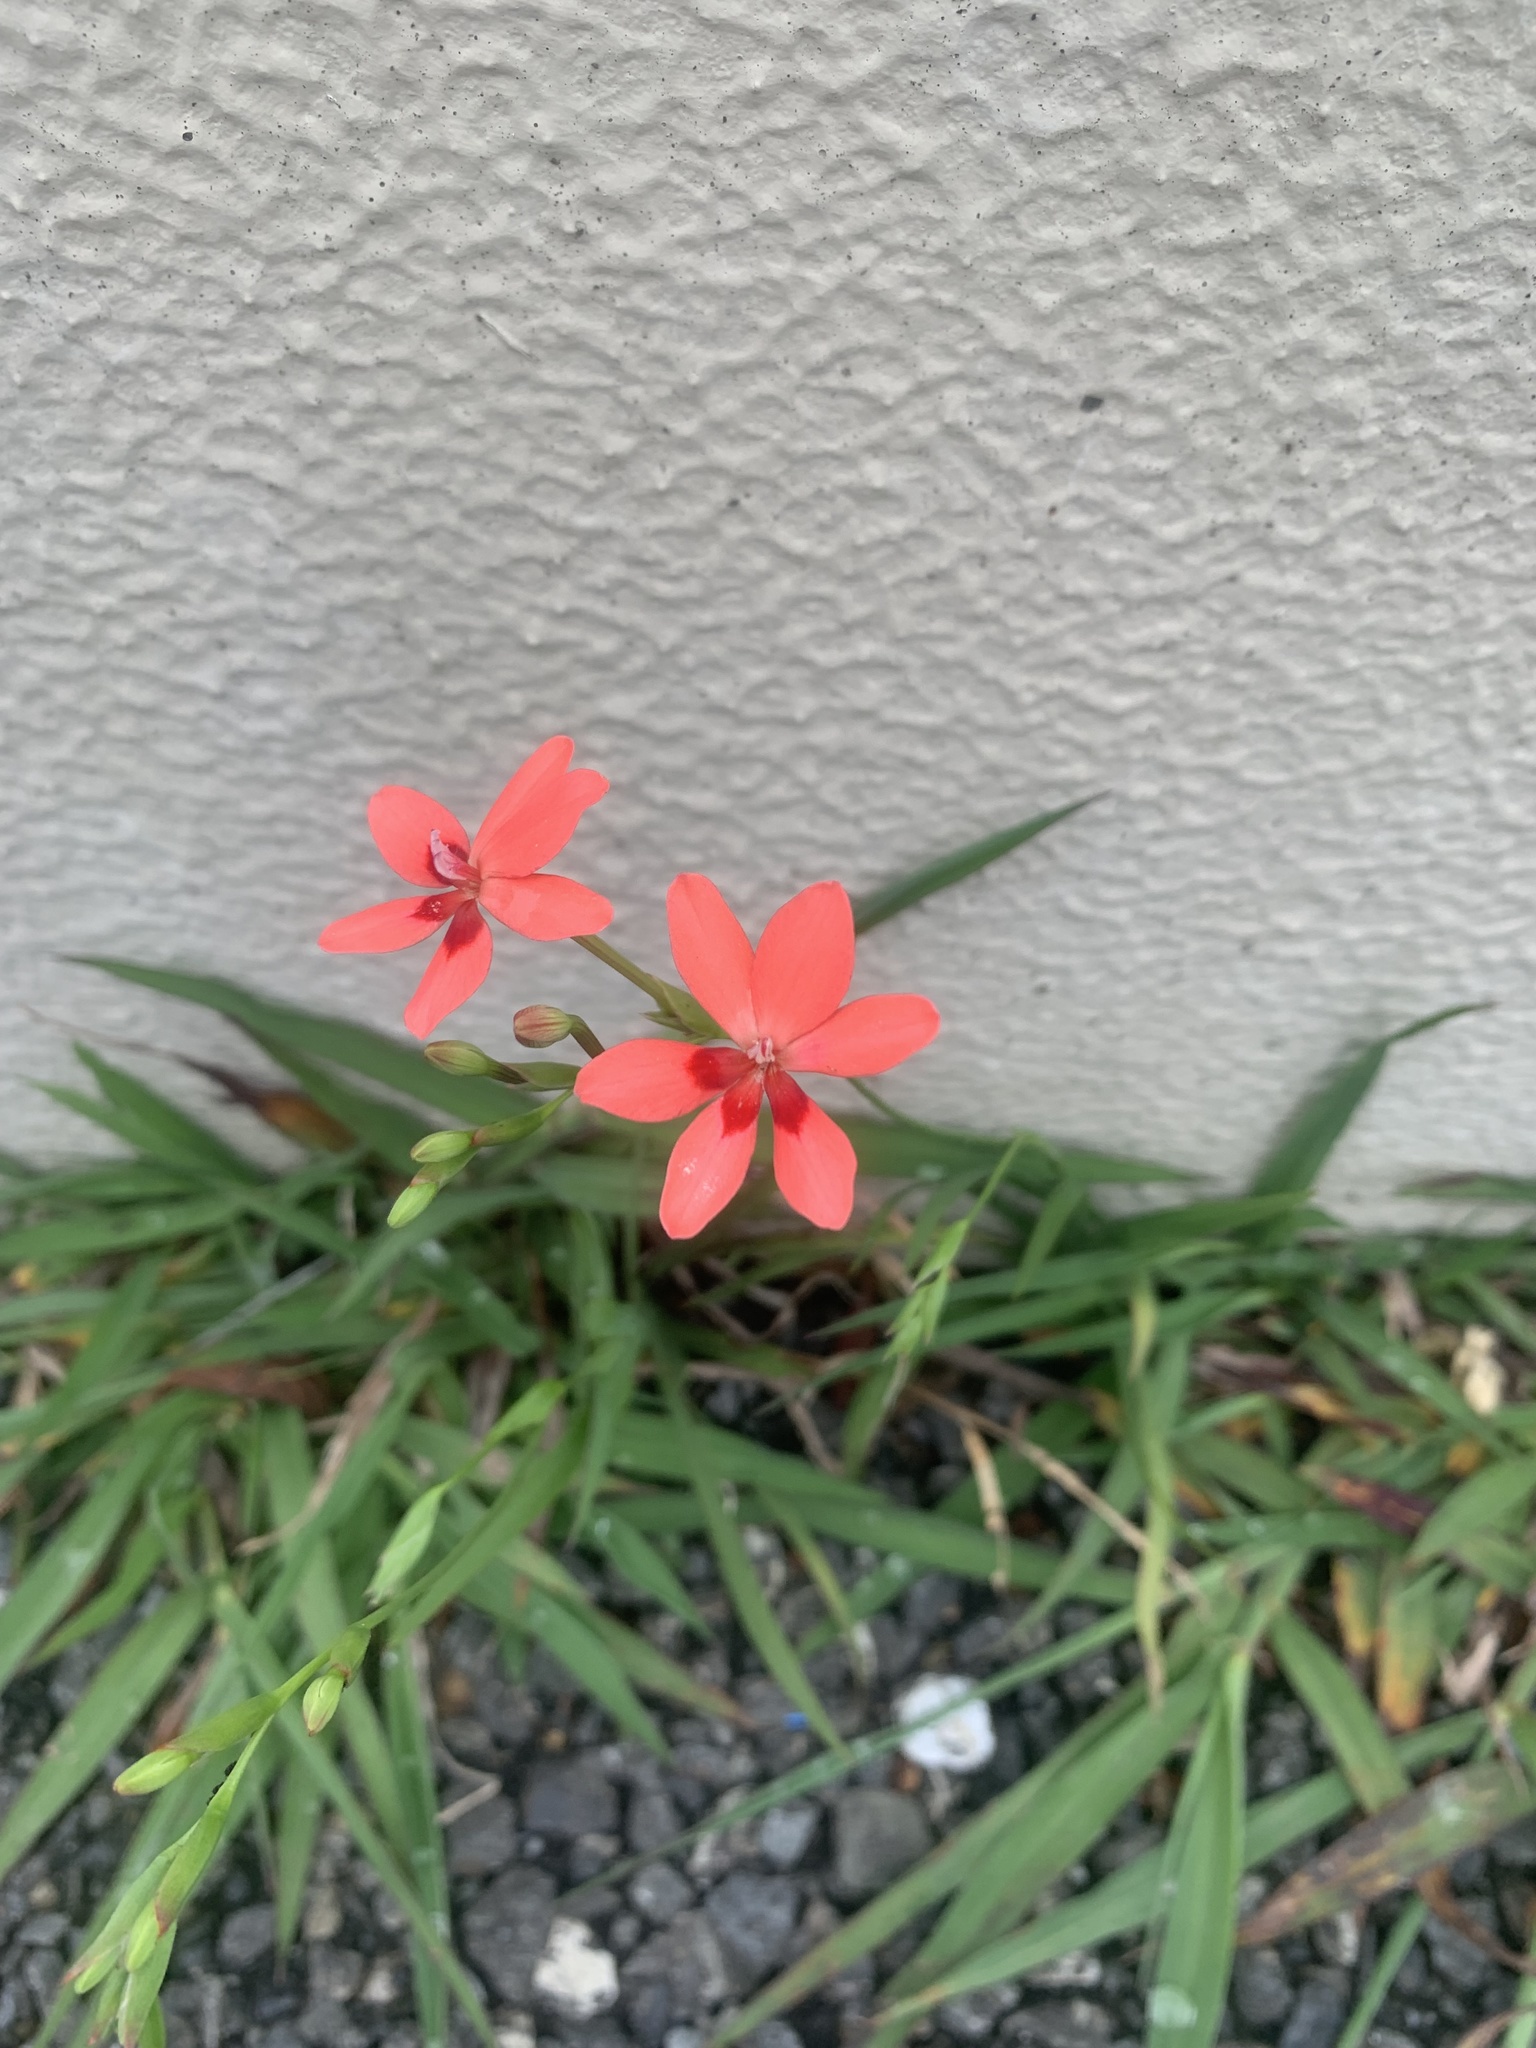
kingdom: Plantae
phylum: Tracheophyta
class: Liliopsida
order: Asparagales
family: Iridaceae
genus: Freesia
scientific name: Freesia laxa
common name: False freesia
